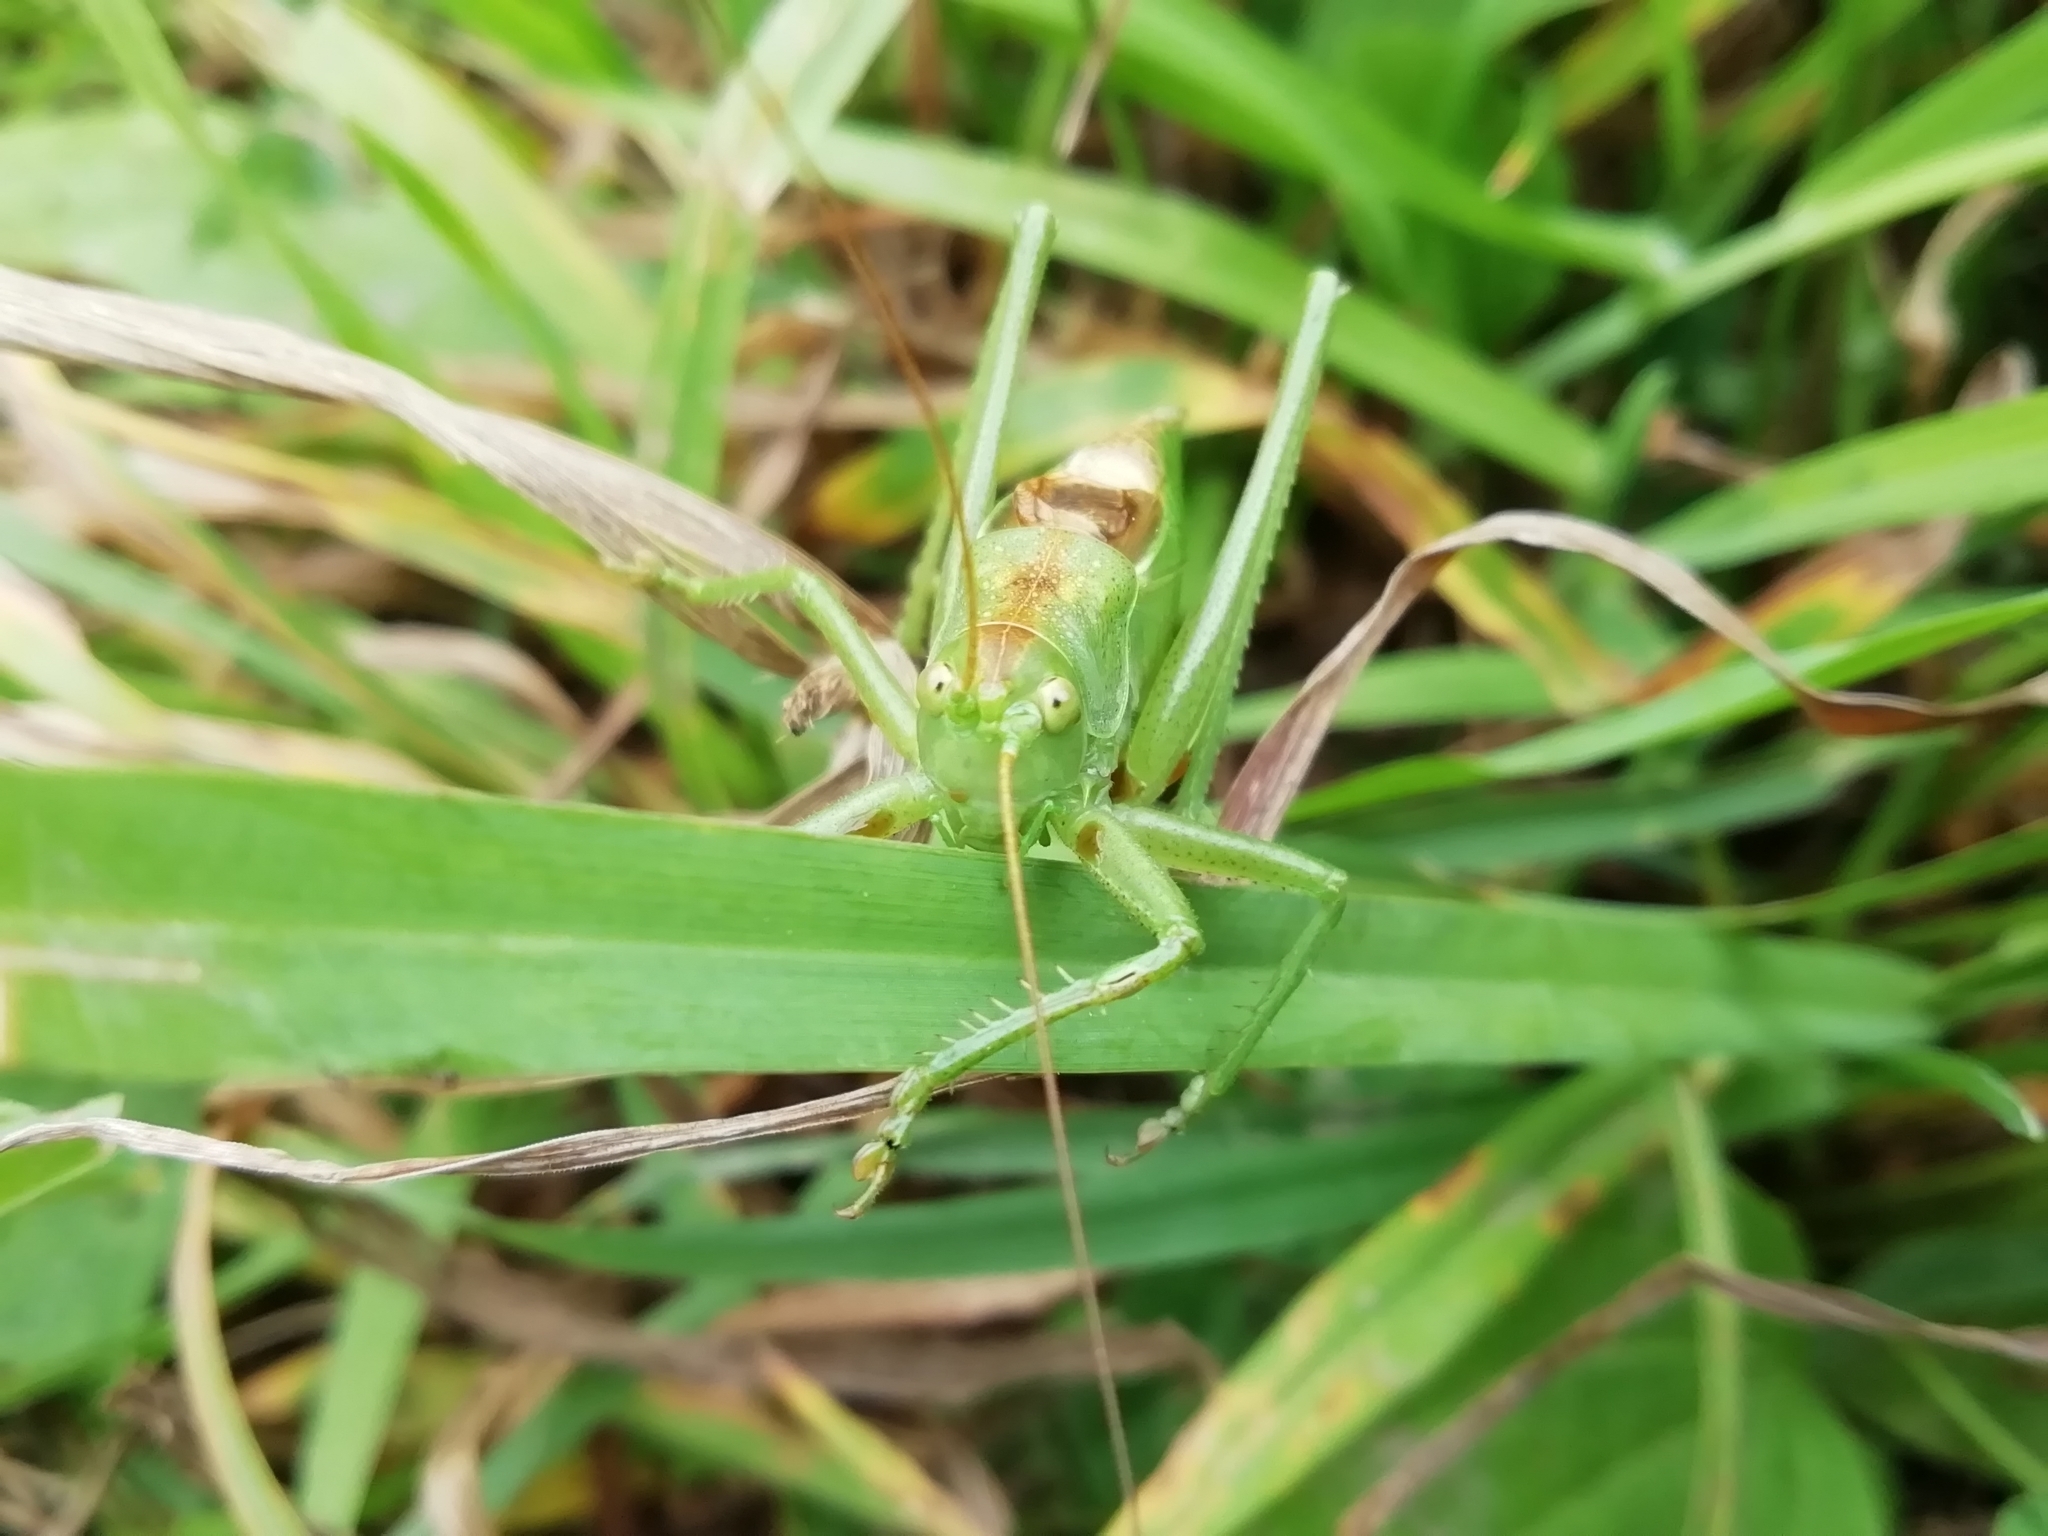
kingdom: Animalia
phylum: Arthropoda
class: Insecta
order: Orthoptera
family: Tettigoniidae
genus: Tettigonia
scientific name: Tettigonia cantans
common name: Upland green bush-cricket
